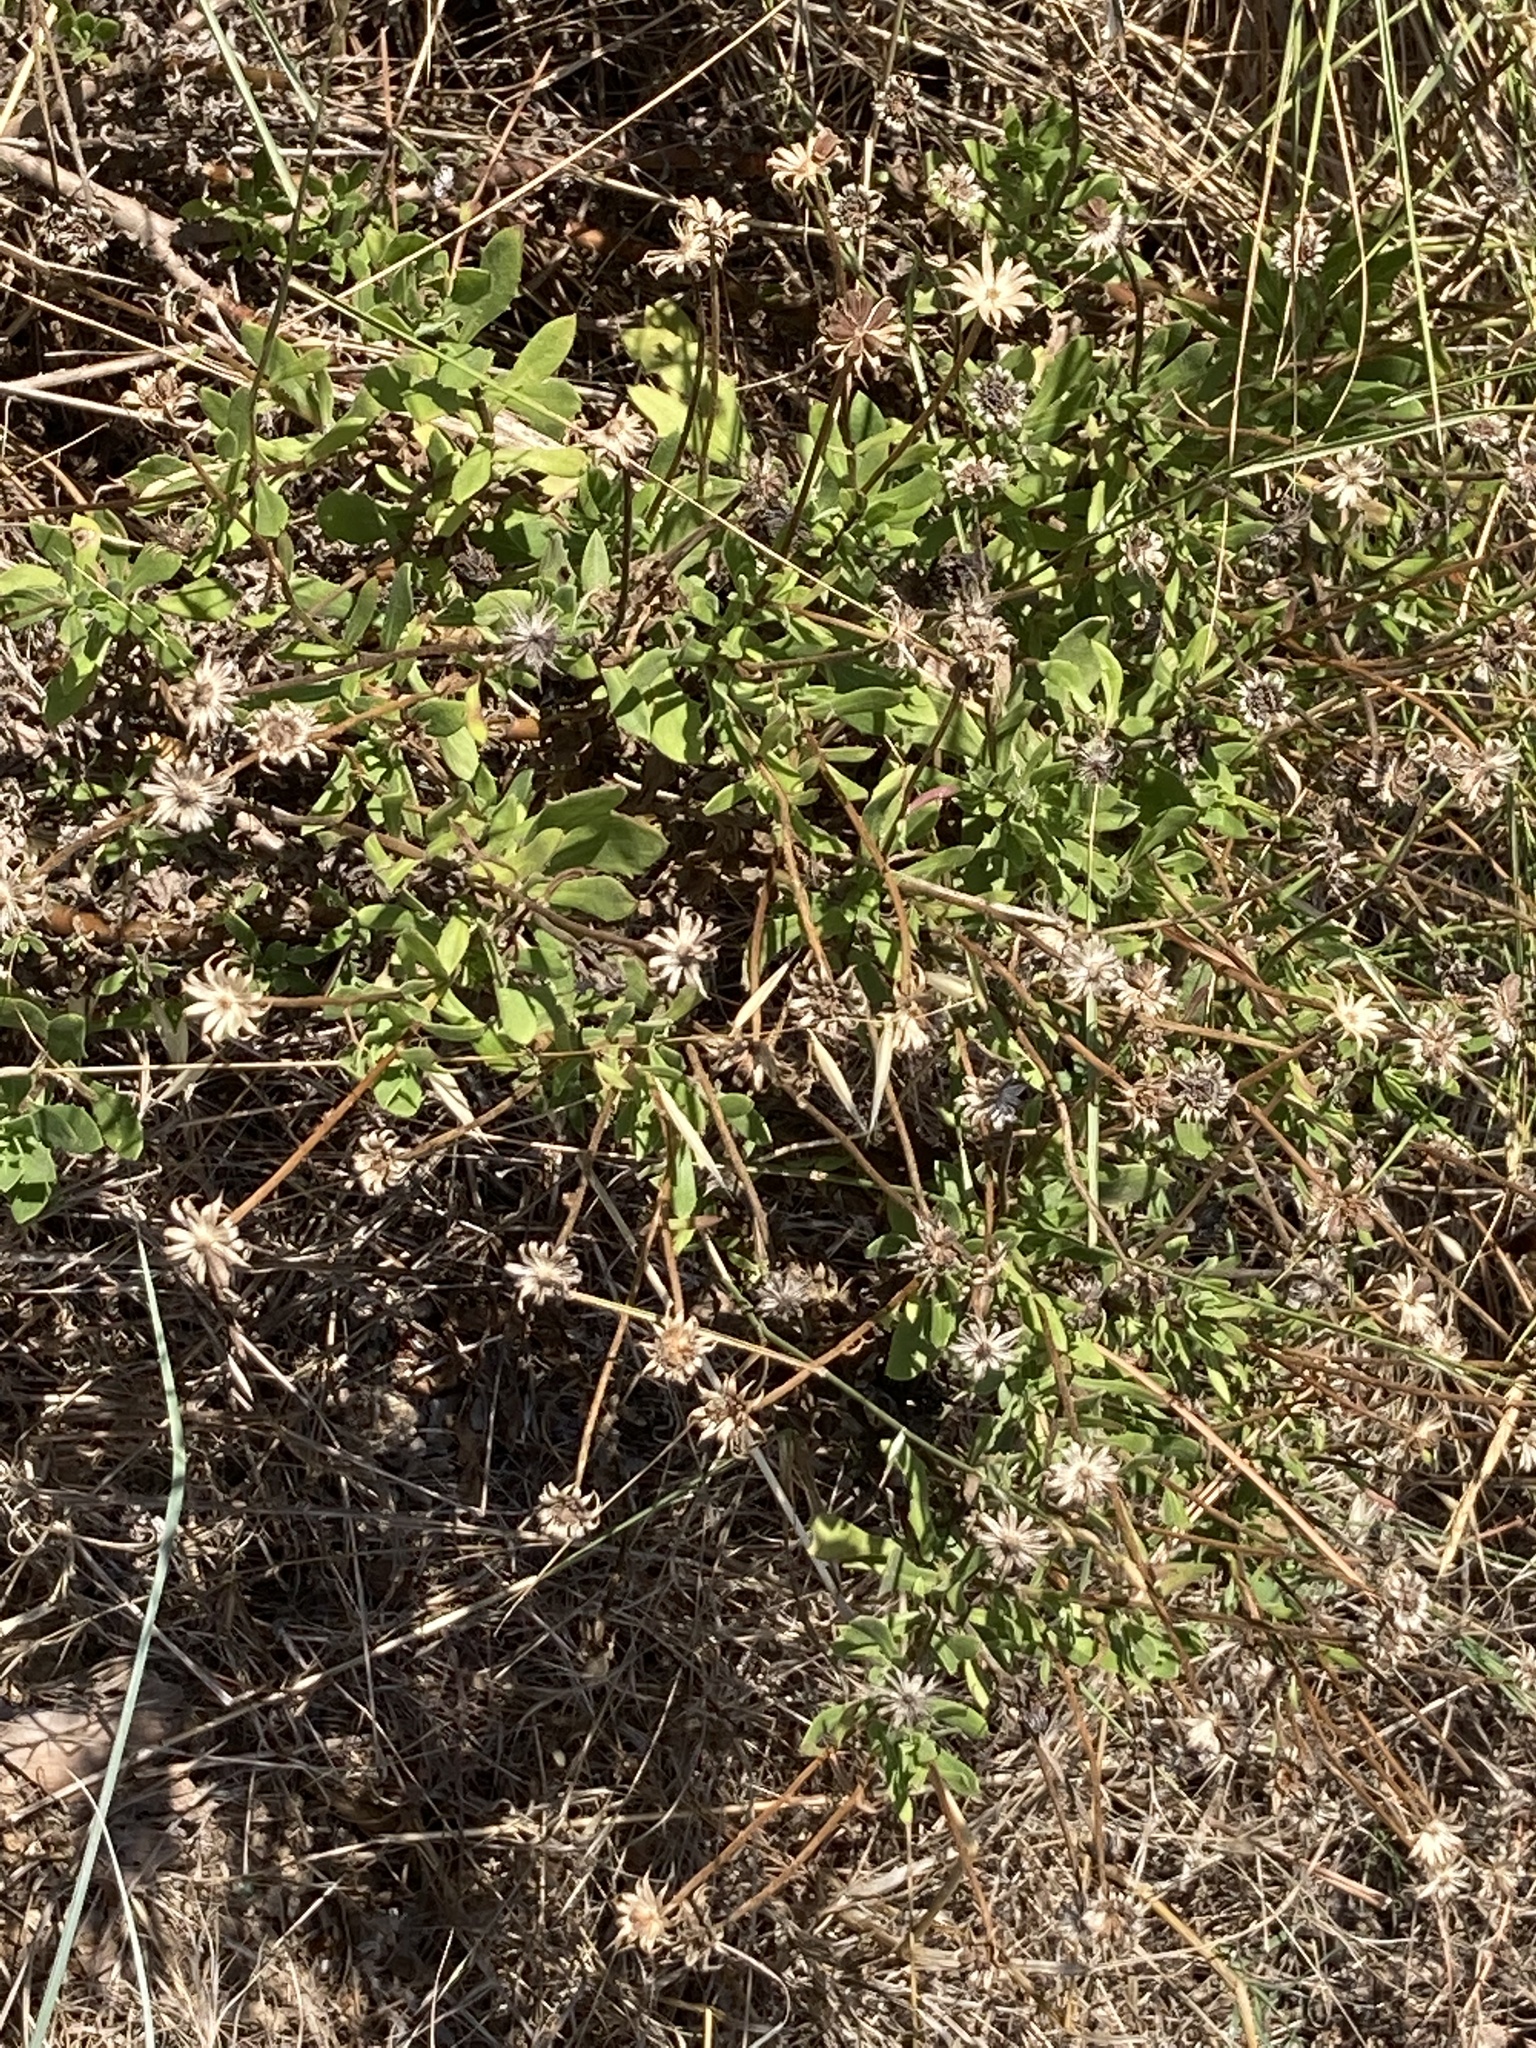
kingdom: Plantae
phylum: Tracheophyta
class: Magnoliopsida
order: Asterales
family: Asteraceae
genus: Dimorphotheca
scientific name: Dimorphotheca ecklonis
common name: Vanstaden's river daisy
